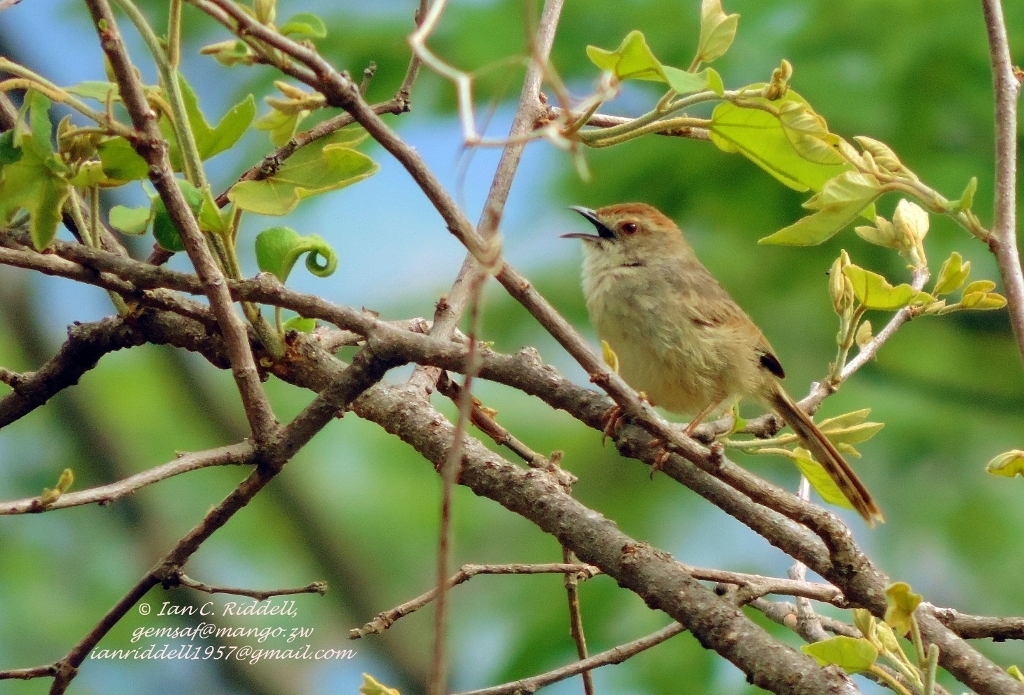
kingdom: Animalia
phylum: Chordata
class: Aves
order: Passeriformes
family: Cisticolidae
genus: Cisticola
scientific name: Cisticola aberrans
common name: Lazy cisticola
